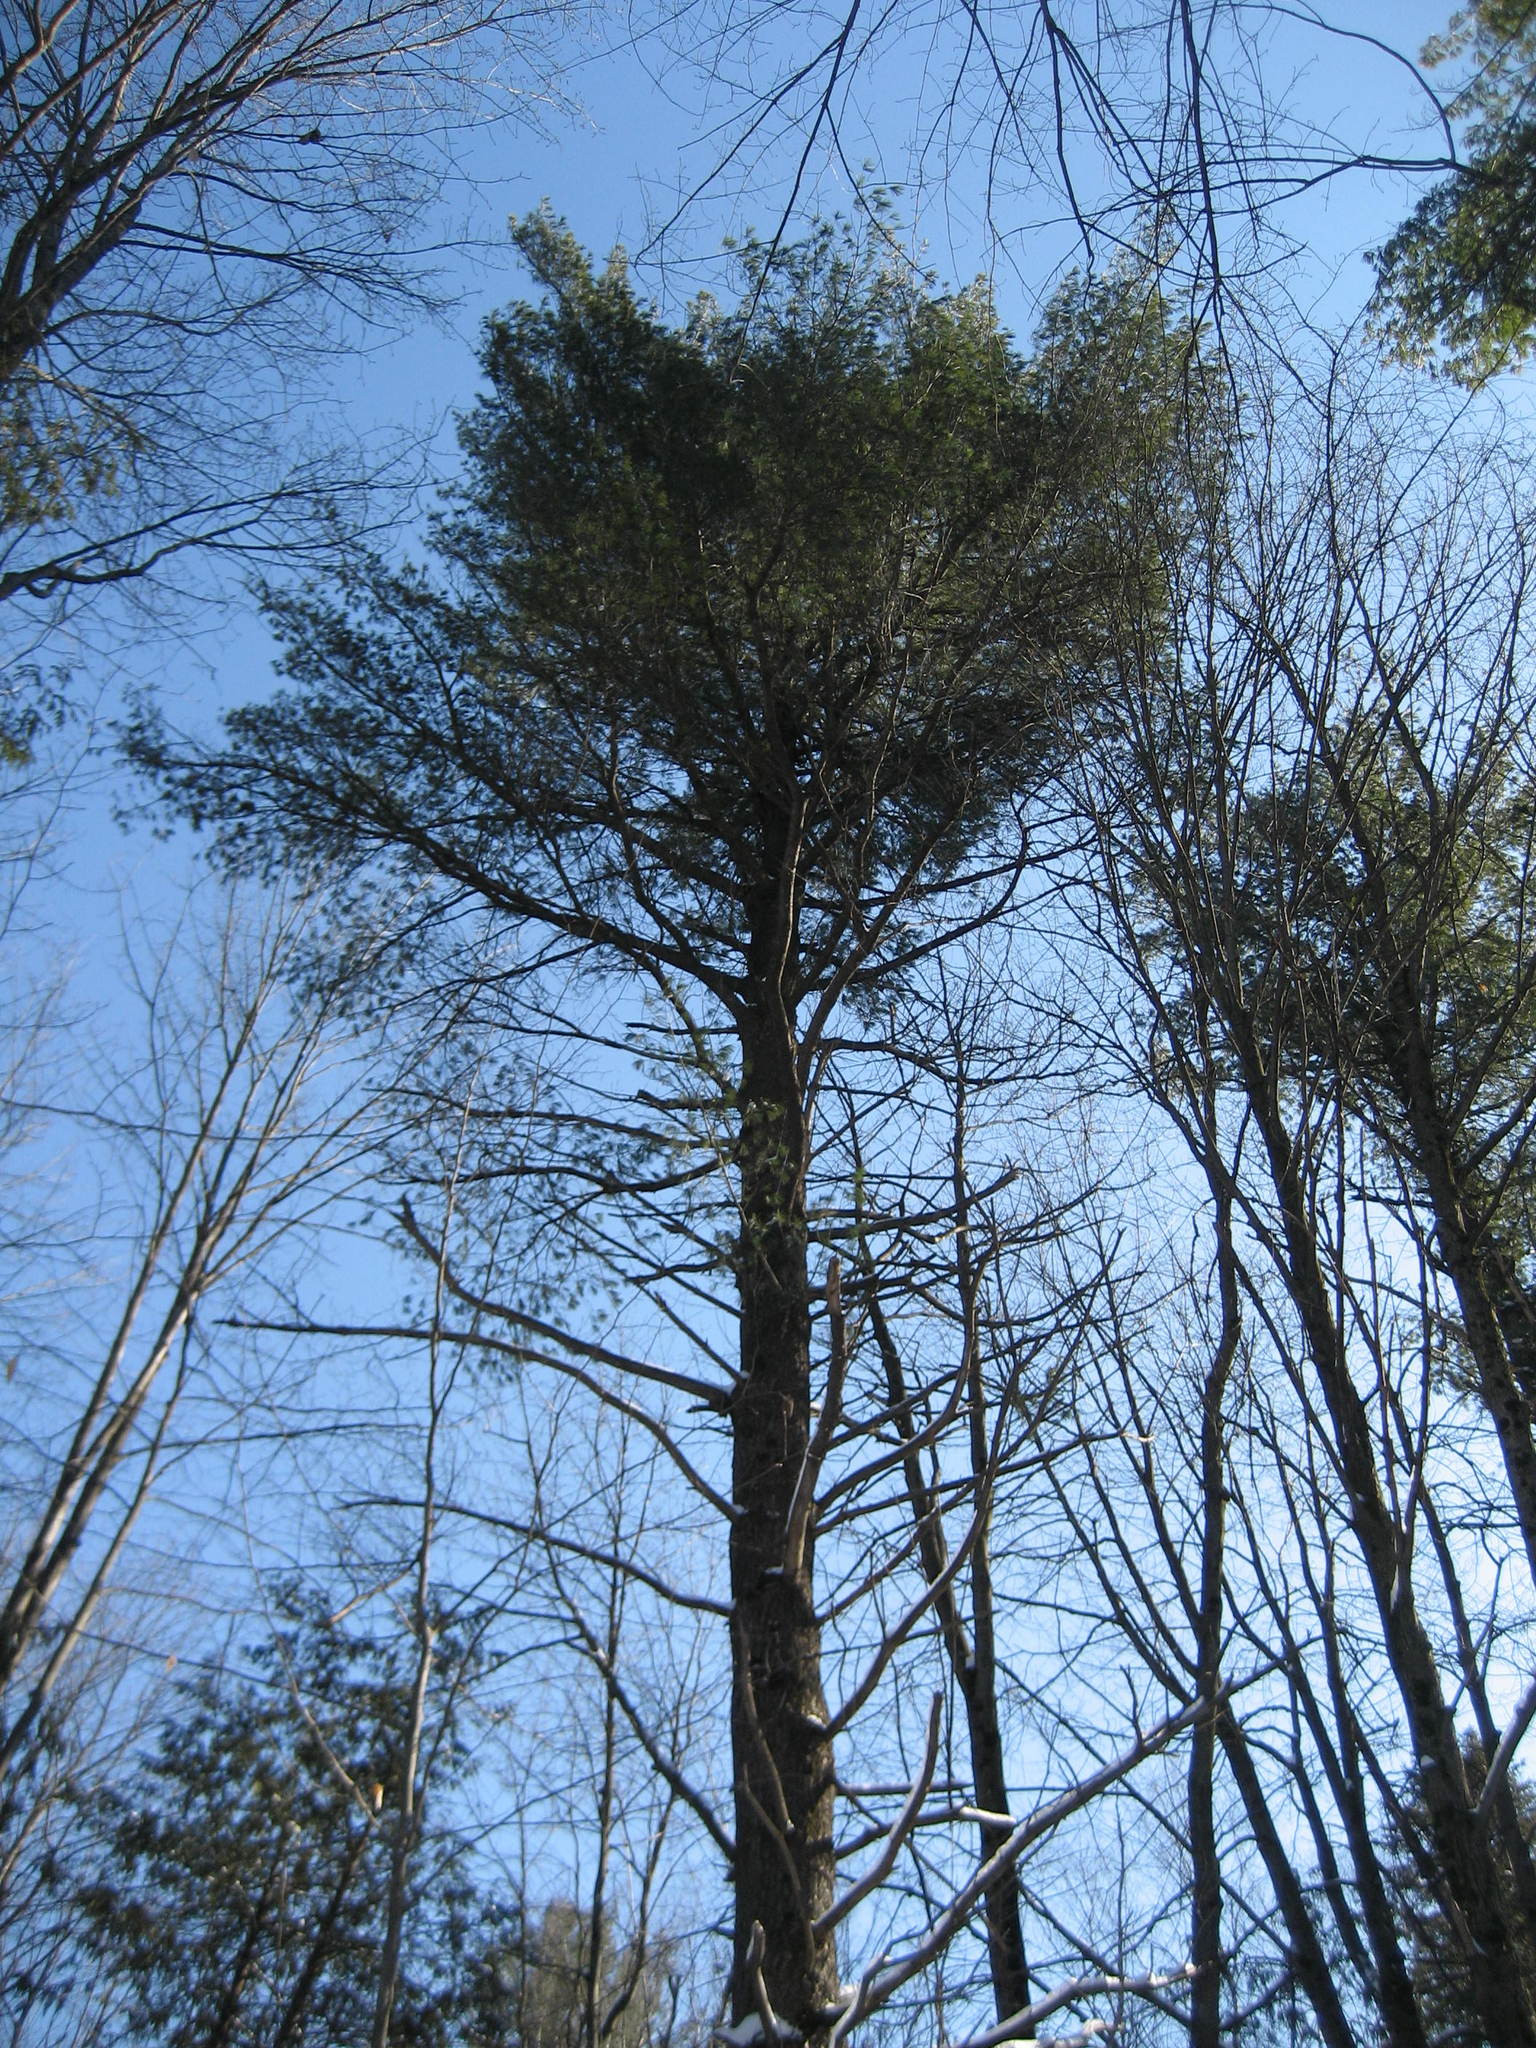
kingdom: Plantae
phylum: Tracheophyta
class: Pinopsida
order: Pinales
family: Pinaceae
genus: Pinus
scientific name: Pinus strobus
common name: Weymouth pine
